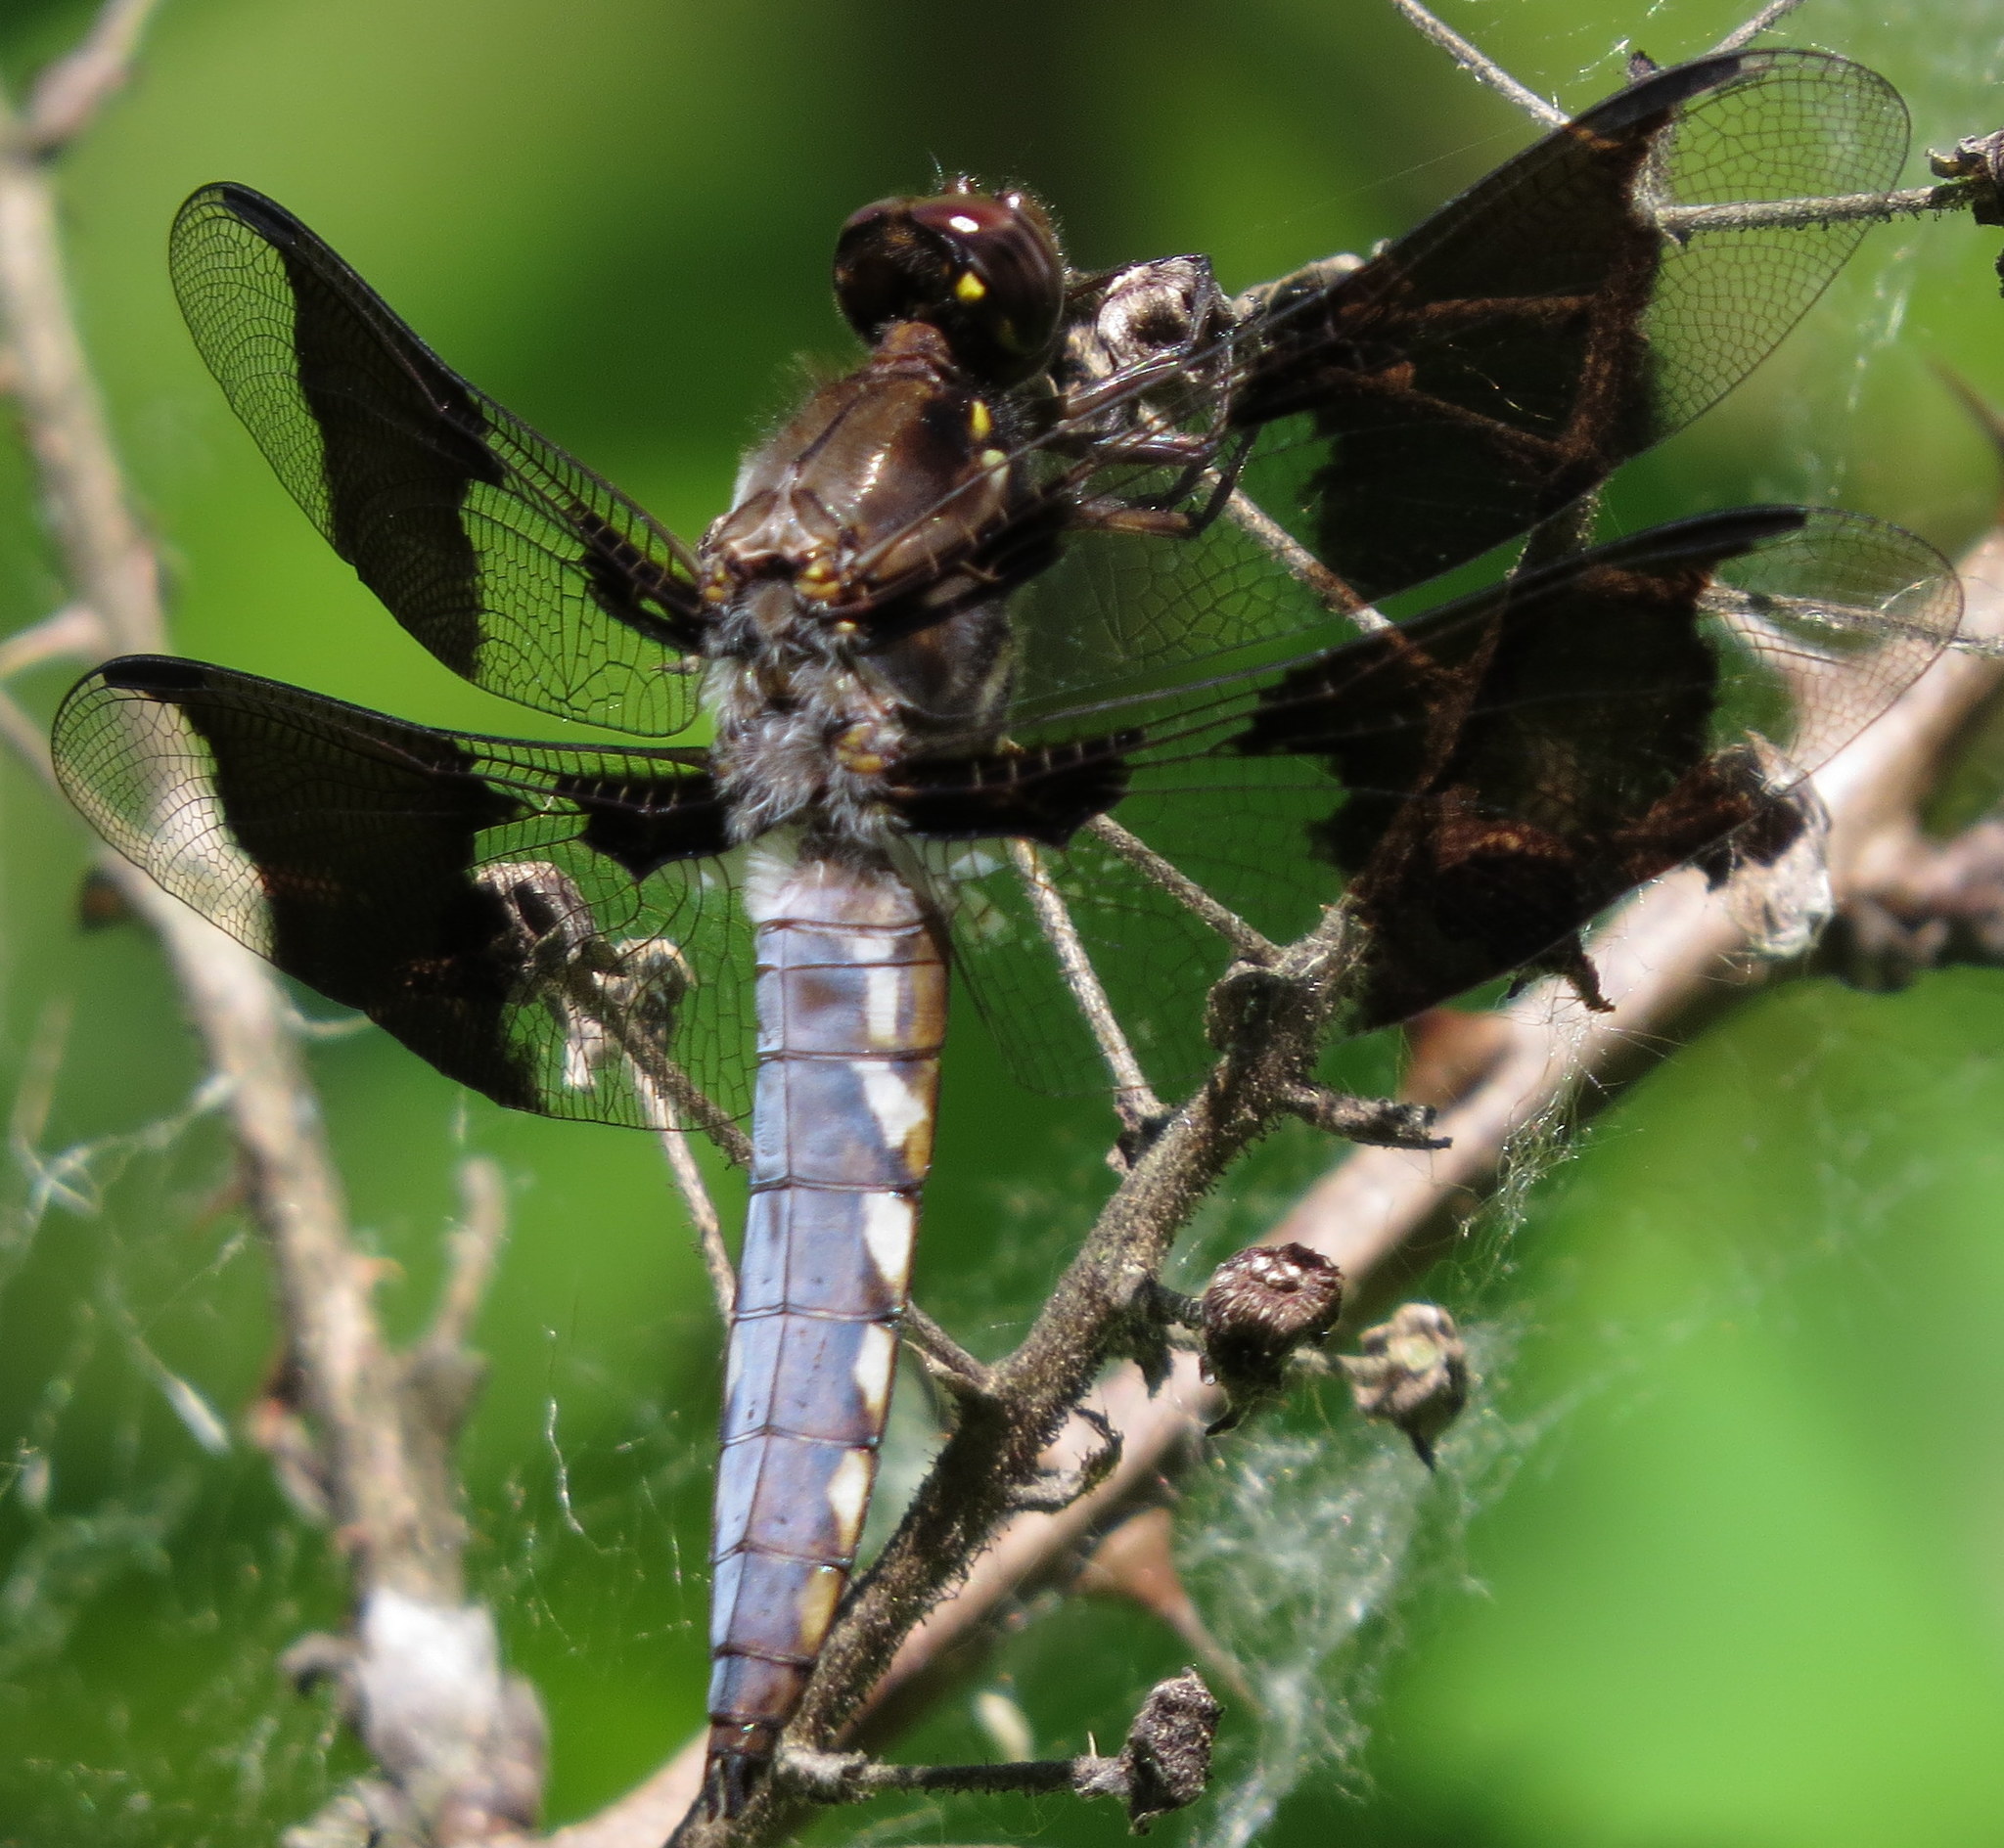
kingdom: Animalia
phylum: Arthropoda
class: Insecta
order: Odonata
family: Libellulidae
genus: Plathemis
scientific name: Plathemis lydia
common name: Common whitetail
